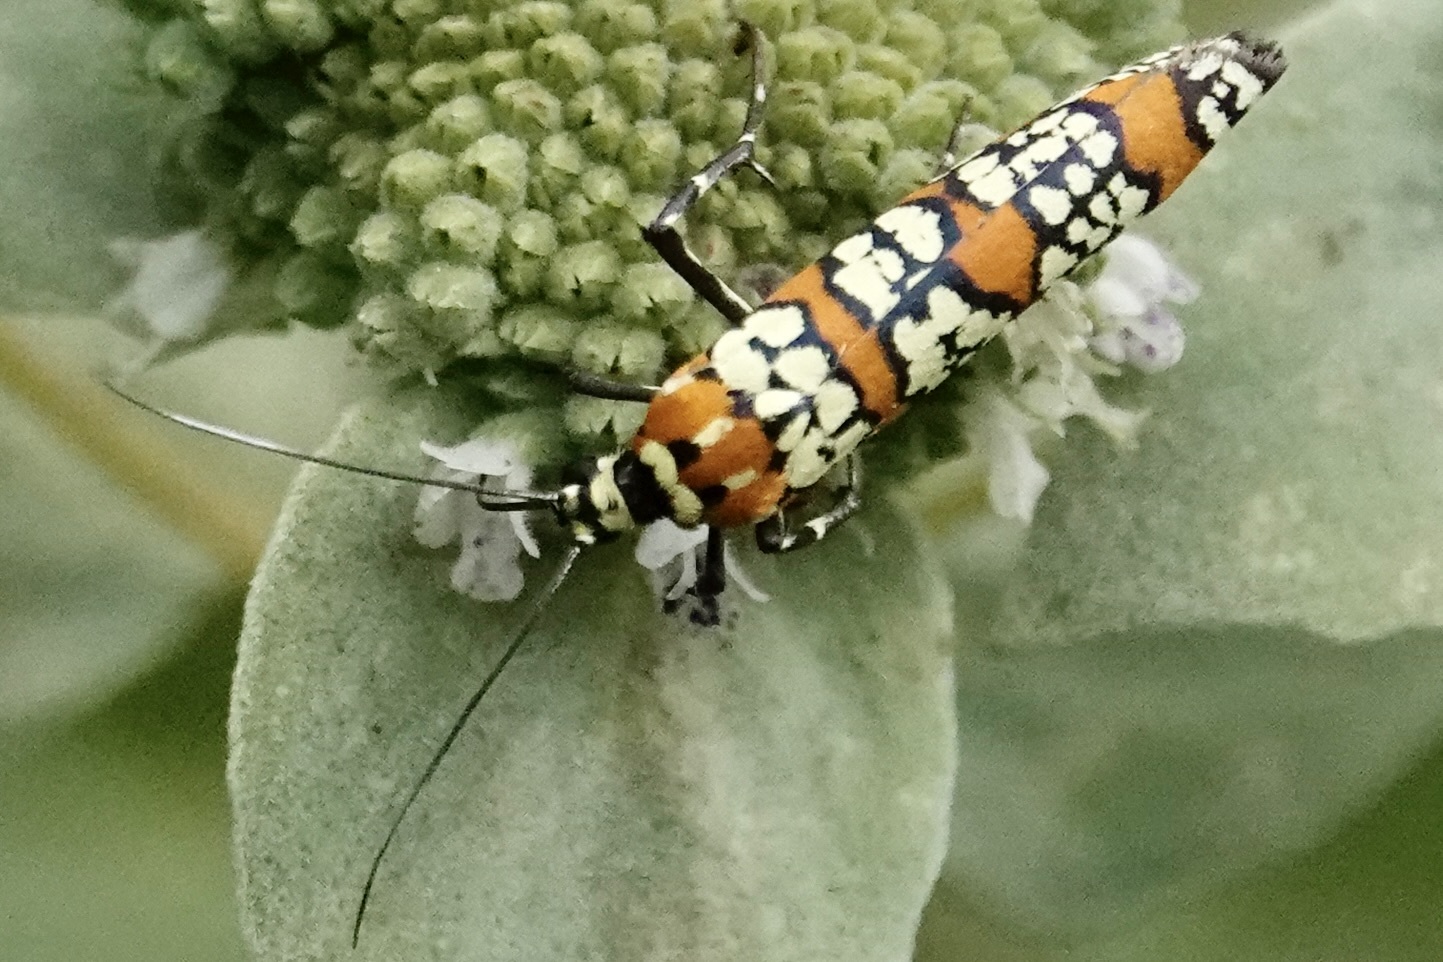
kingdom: Animalia
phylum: Arthropoda
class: Insecta
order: Lepidoptera
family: Attevidae
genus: Atteva
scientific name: Atteva punctella
